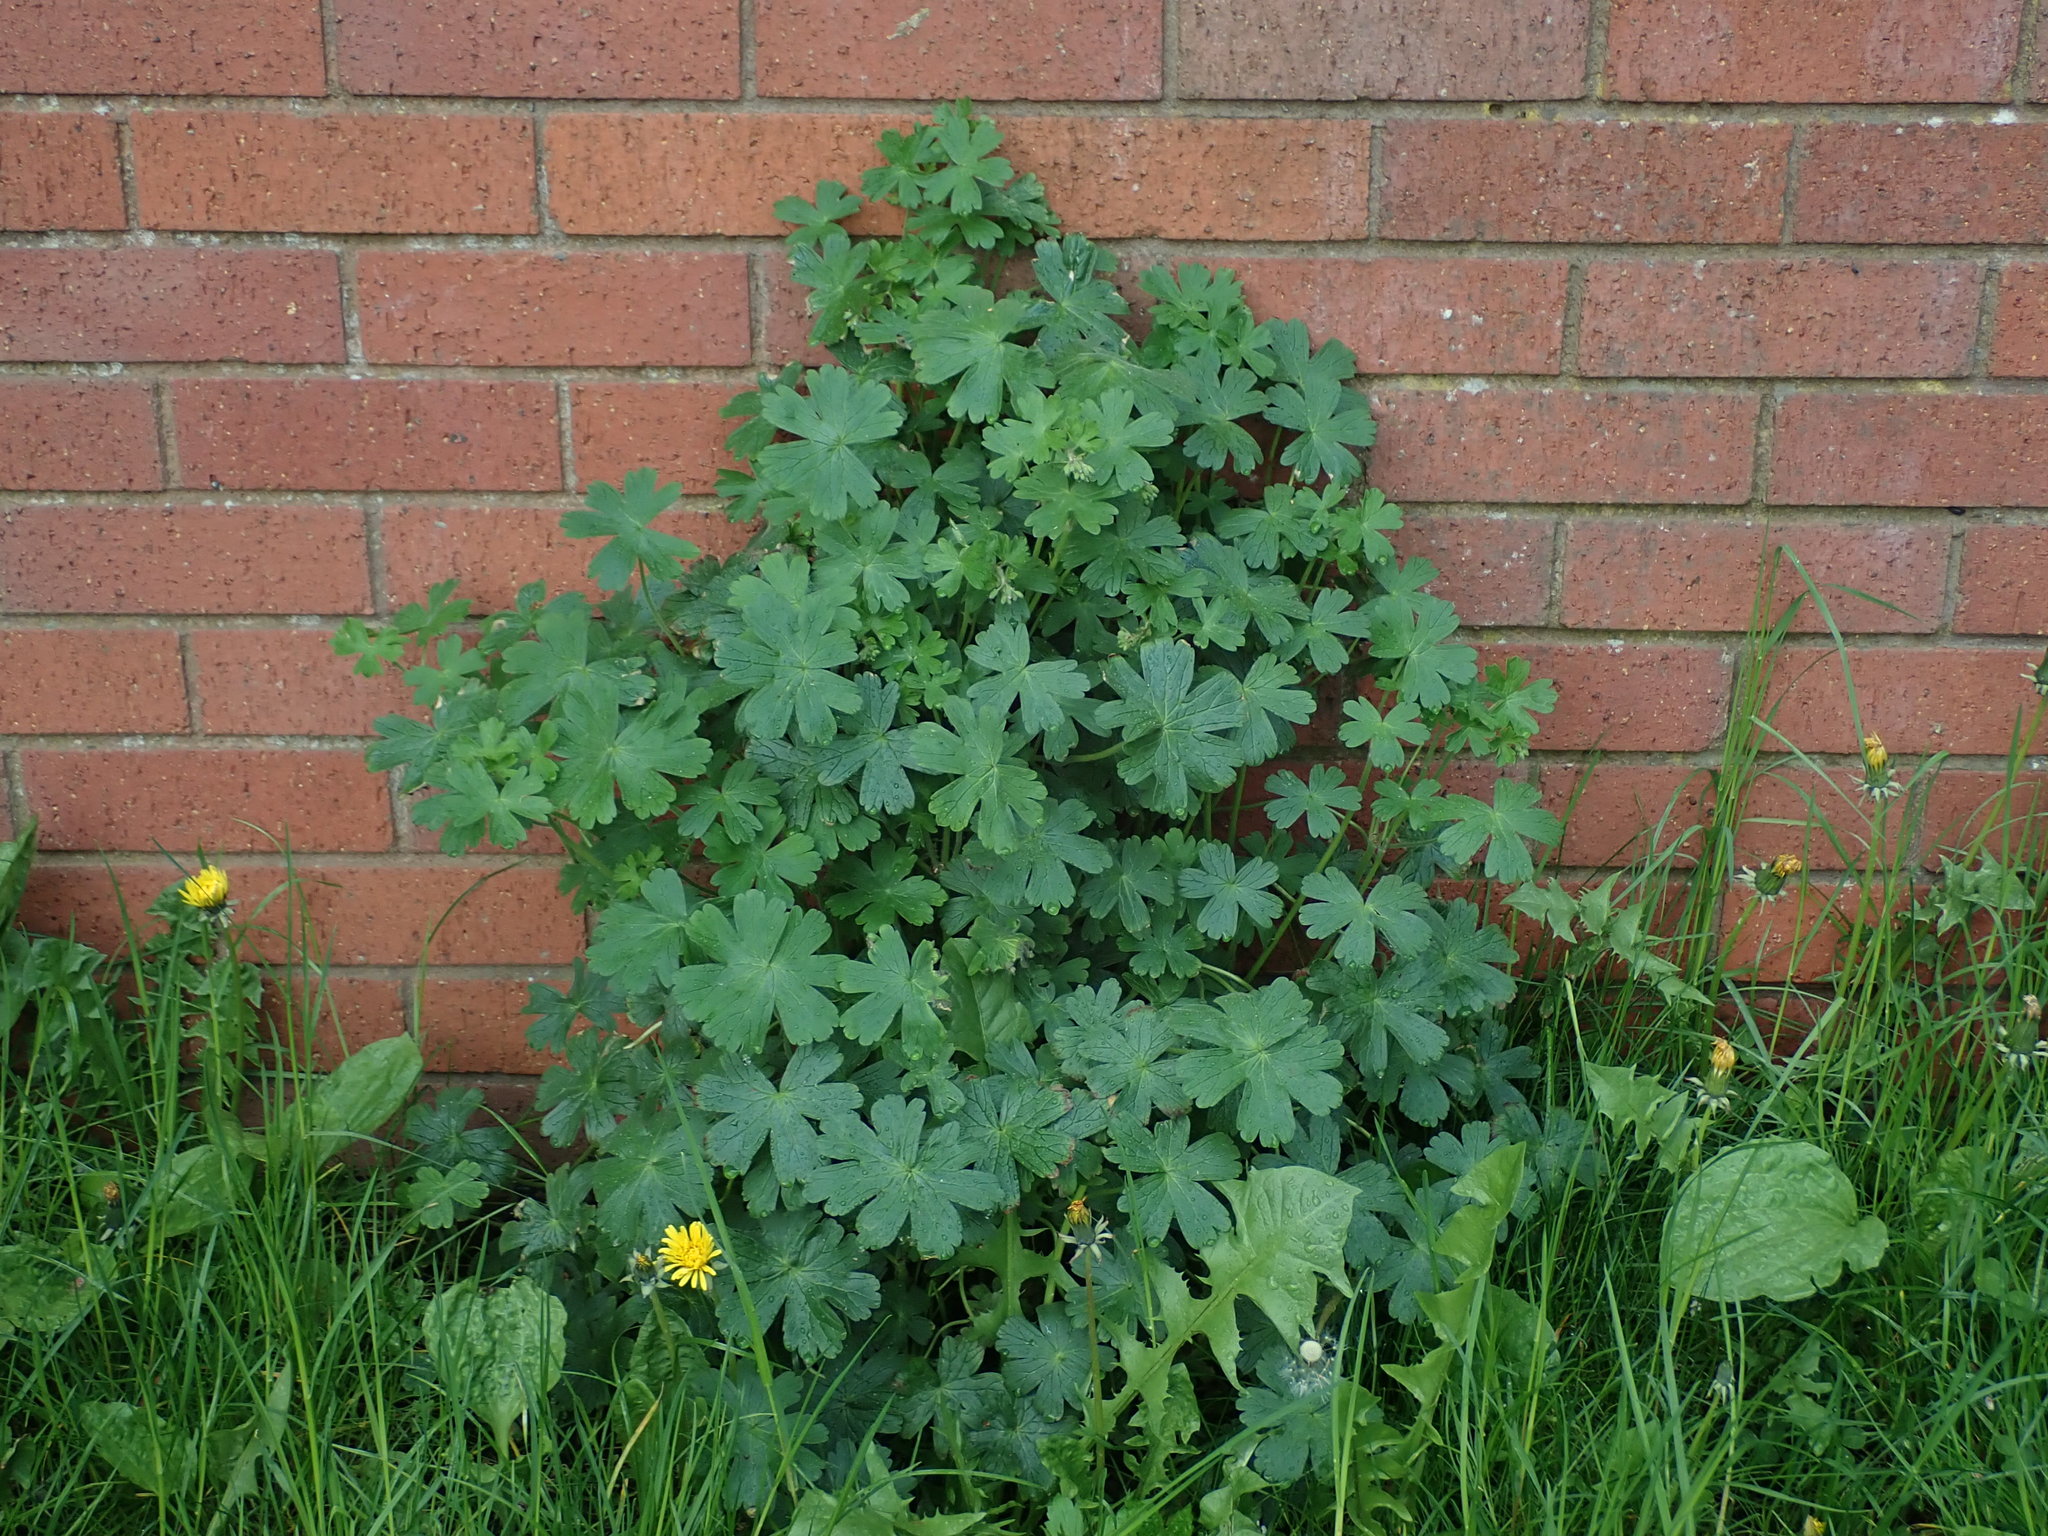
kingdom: Plantae
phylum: Tracheophyta
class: Magnoliopsida
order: Geraniales
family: Geraniaceae
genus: Geranium
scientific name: Geranium pyrenaicum
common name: Hedgerow crane's-bill
